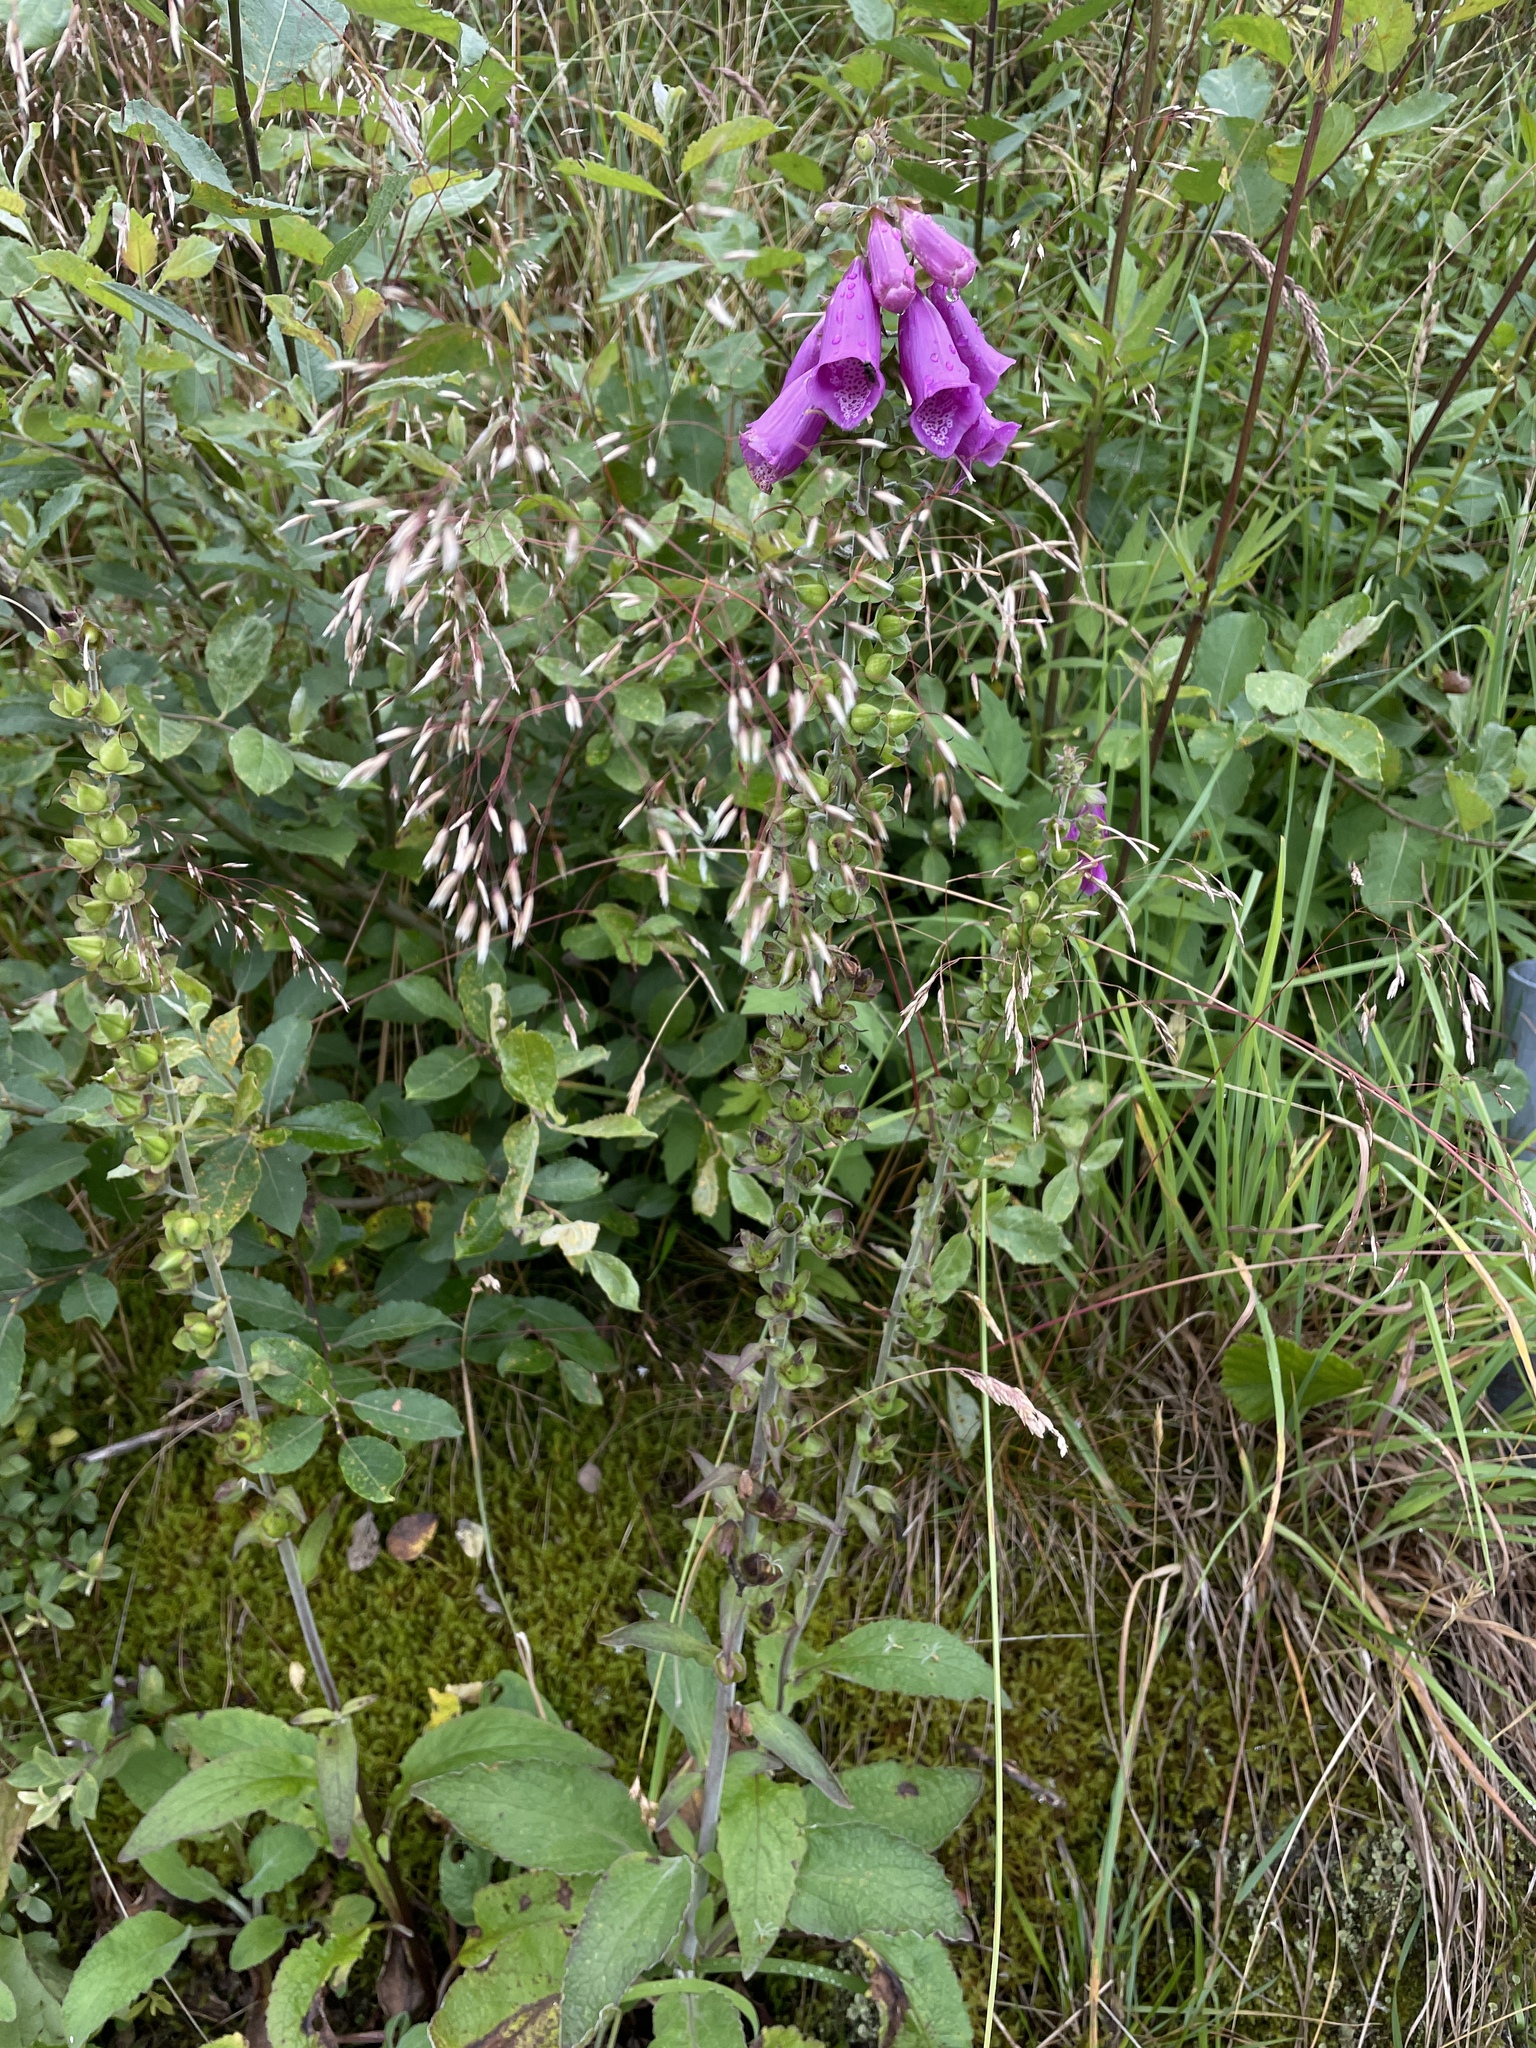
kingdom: Plantae
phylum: Tracheophyta
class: Magnoliopsida
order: Lamiales
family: Plantaginaceae
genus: Digitalis
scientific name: Digitalis purpurea
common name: Foxglove
